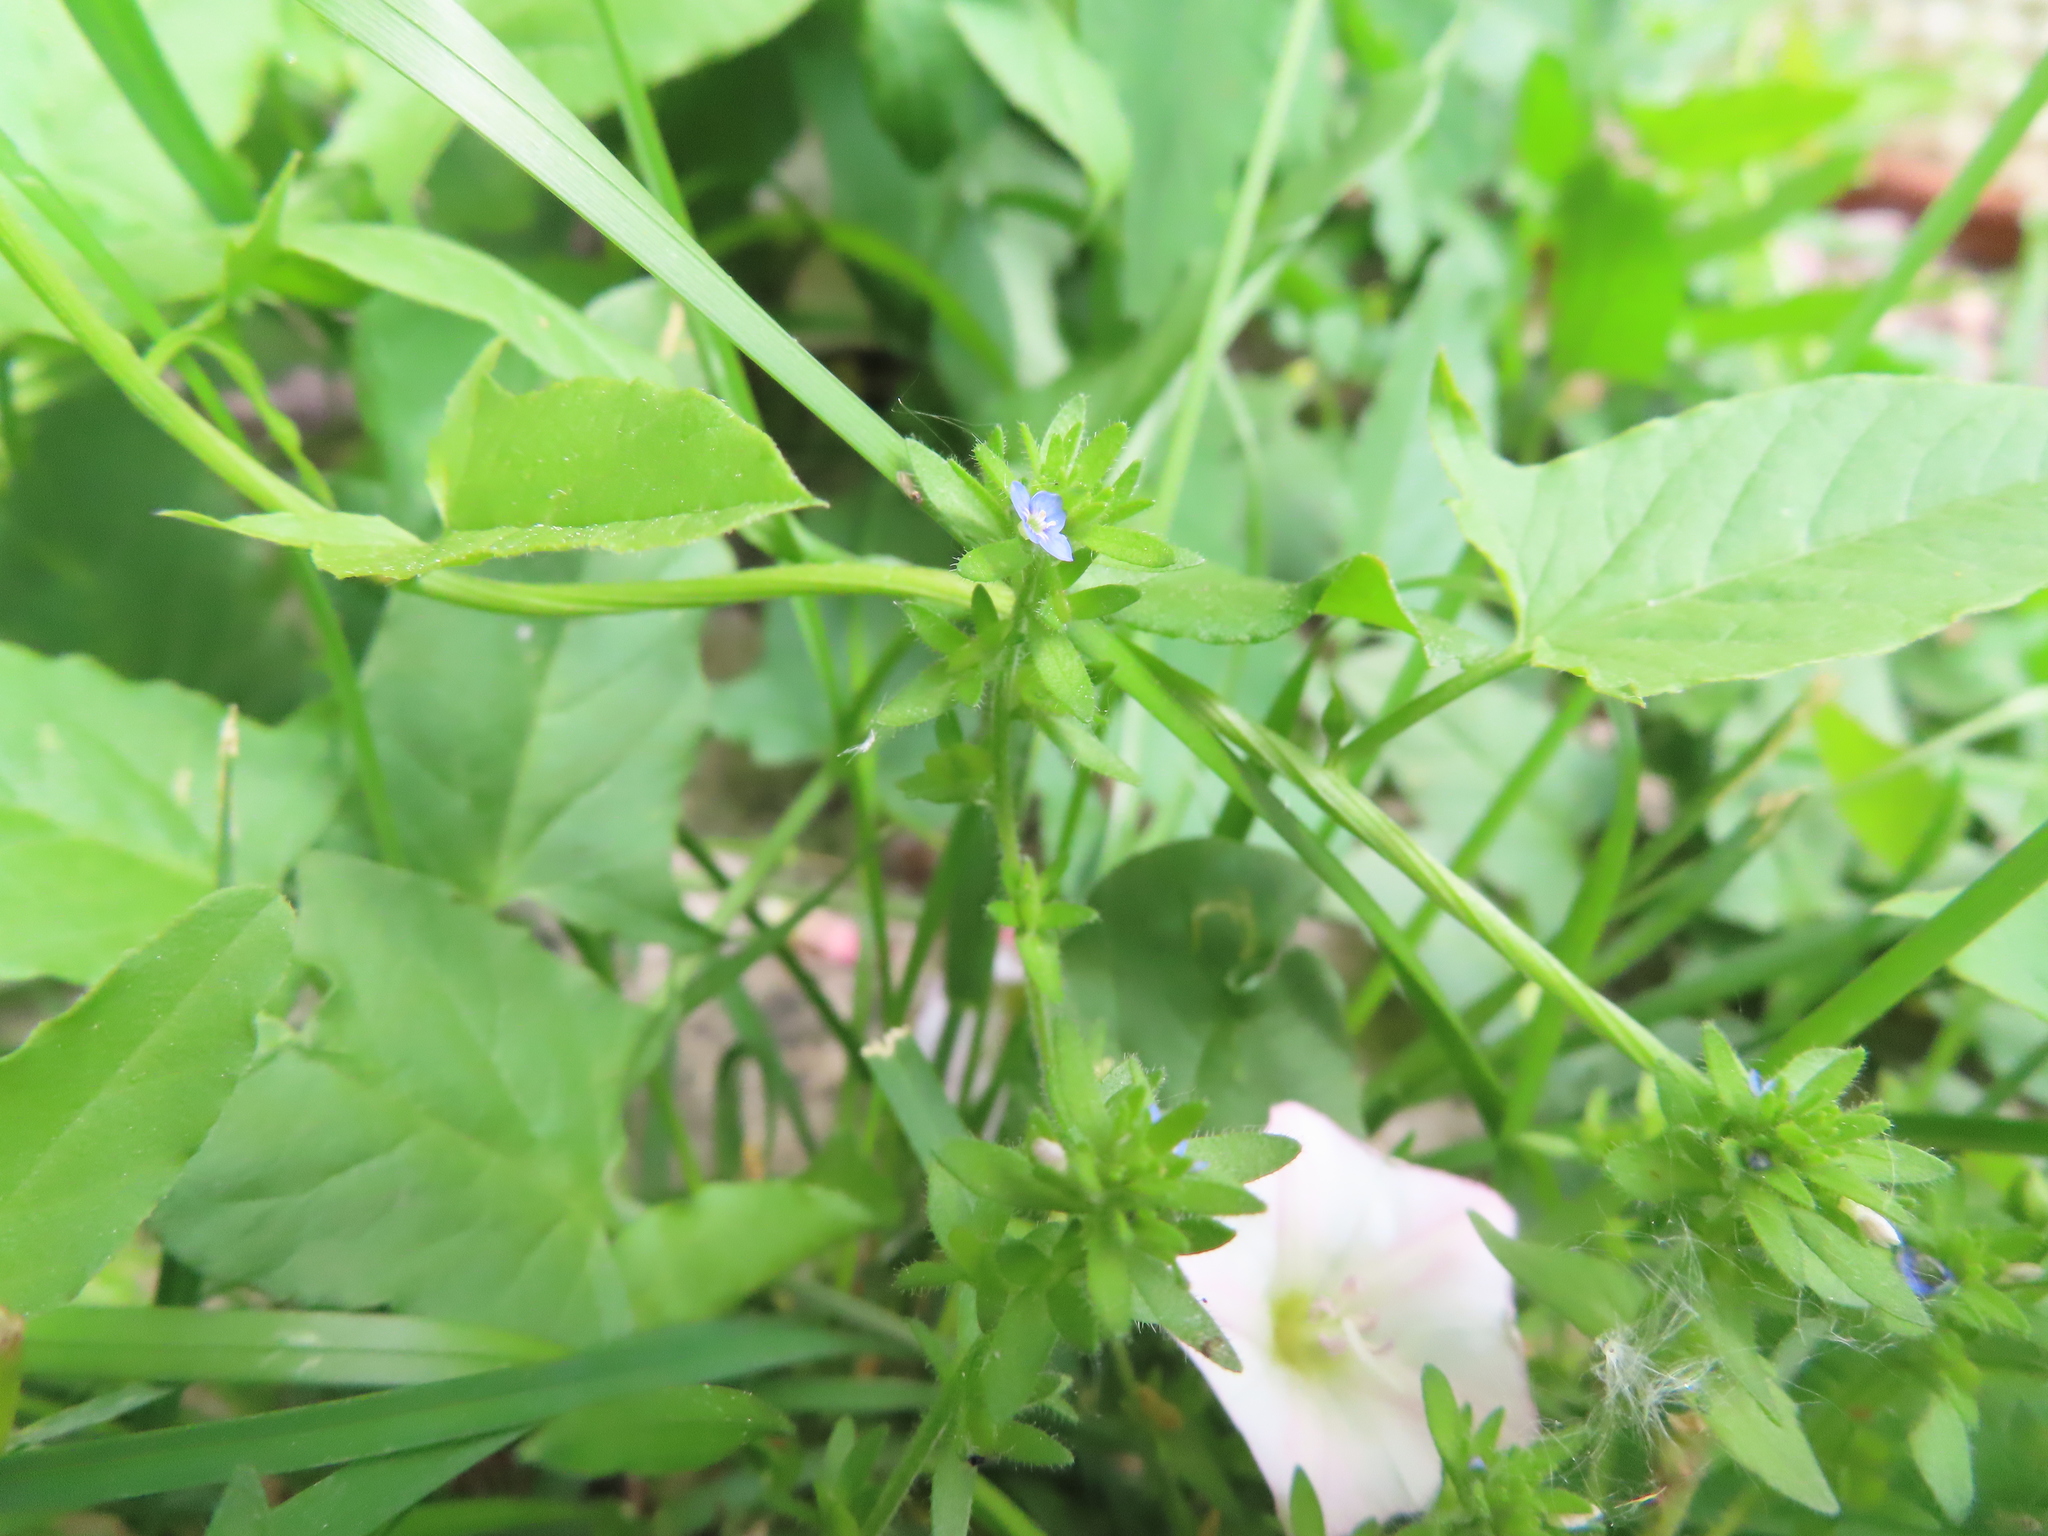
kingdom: Plantae
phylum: Tracheophyta
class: Magnoliopsida
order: Lamiales
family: Plantaginaceae
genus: Veronica
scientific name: Veronica arvensis
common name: Corn speedwell
